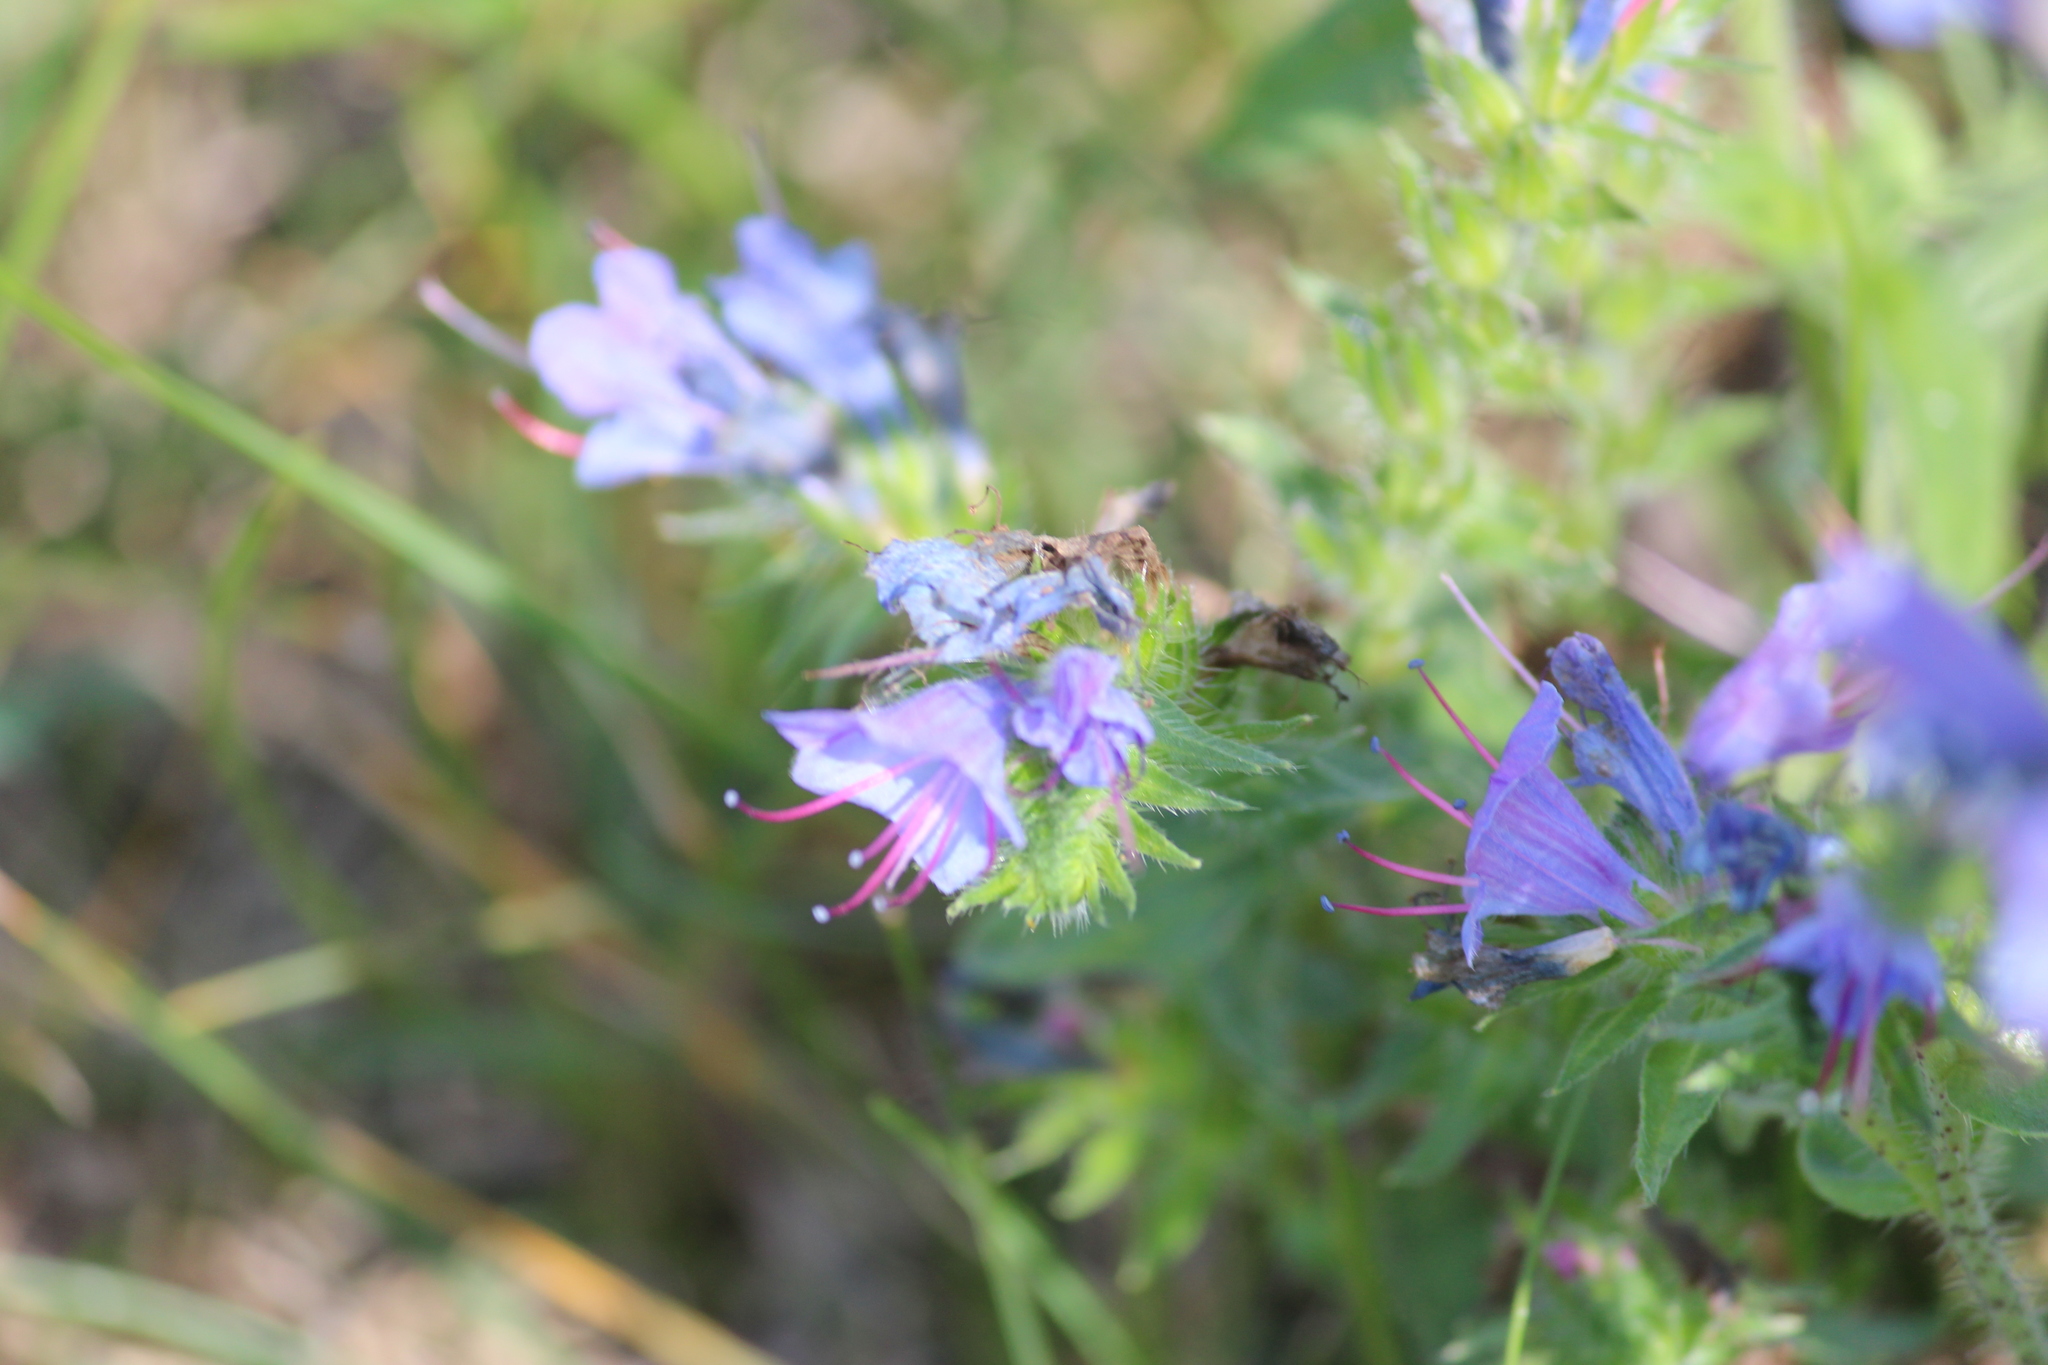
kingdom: Plantae
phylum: Tracheophyta
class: Magnoliopsida
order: Boraginales
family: Boraginaceae
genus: Echium
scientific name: Echium vulgare
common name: Common viper's bugloss
